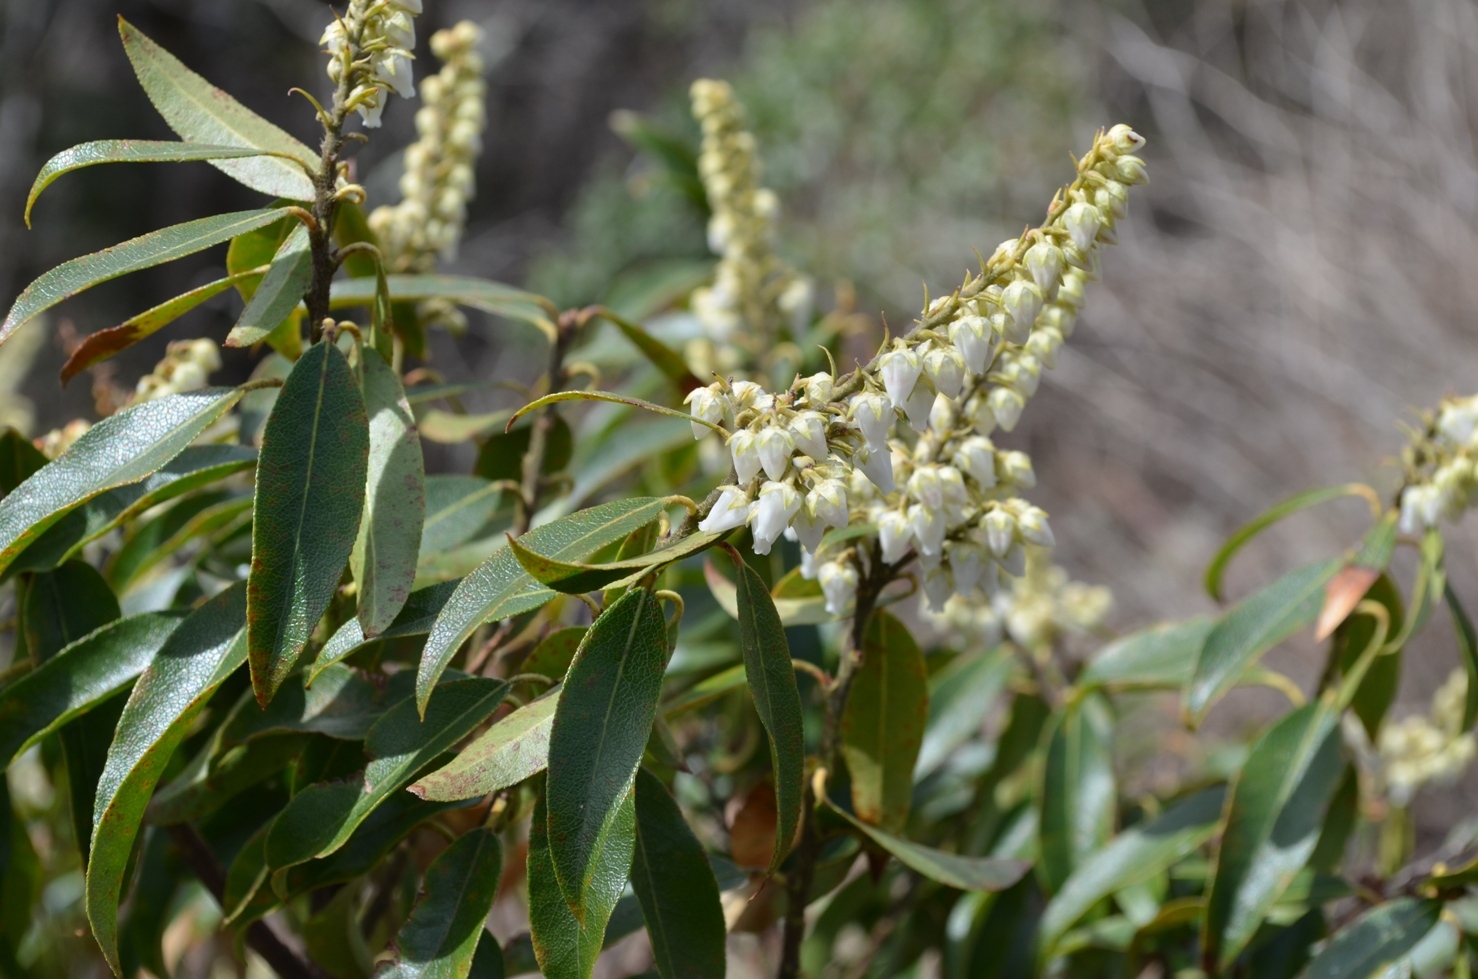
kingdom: Plantae
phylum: Tracheophyta
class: Magnoliopsida
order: Ericales
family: Ericaceae
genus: Pieris
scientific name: Pieris floribunda
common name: Flutterbush
